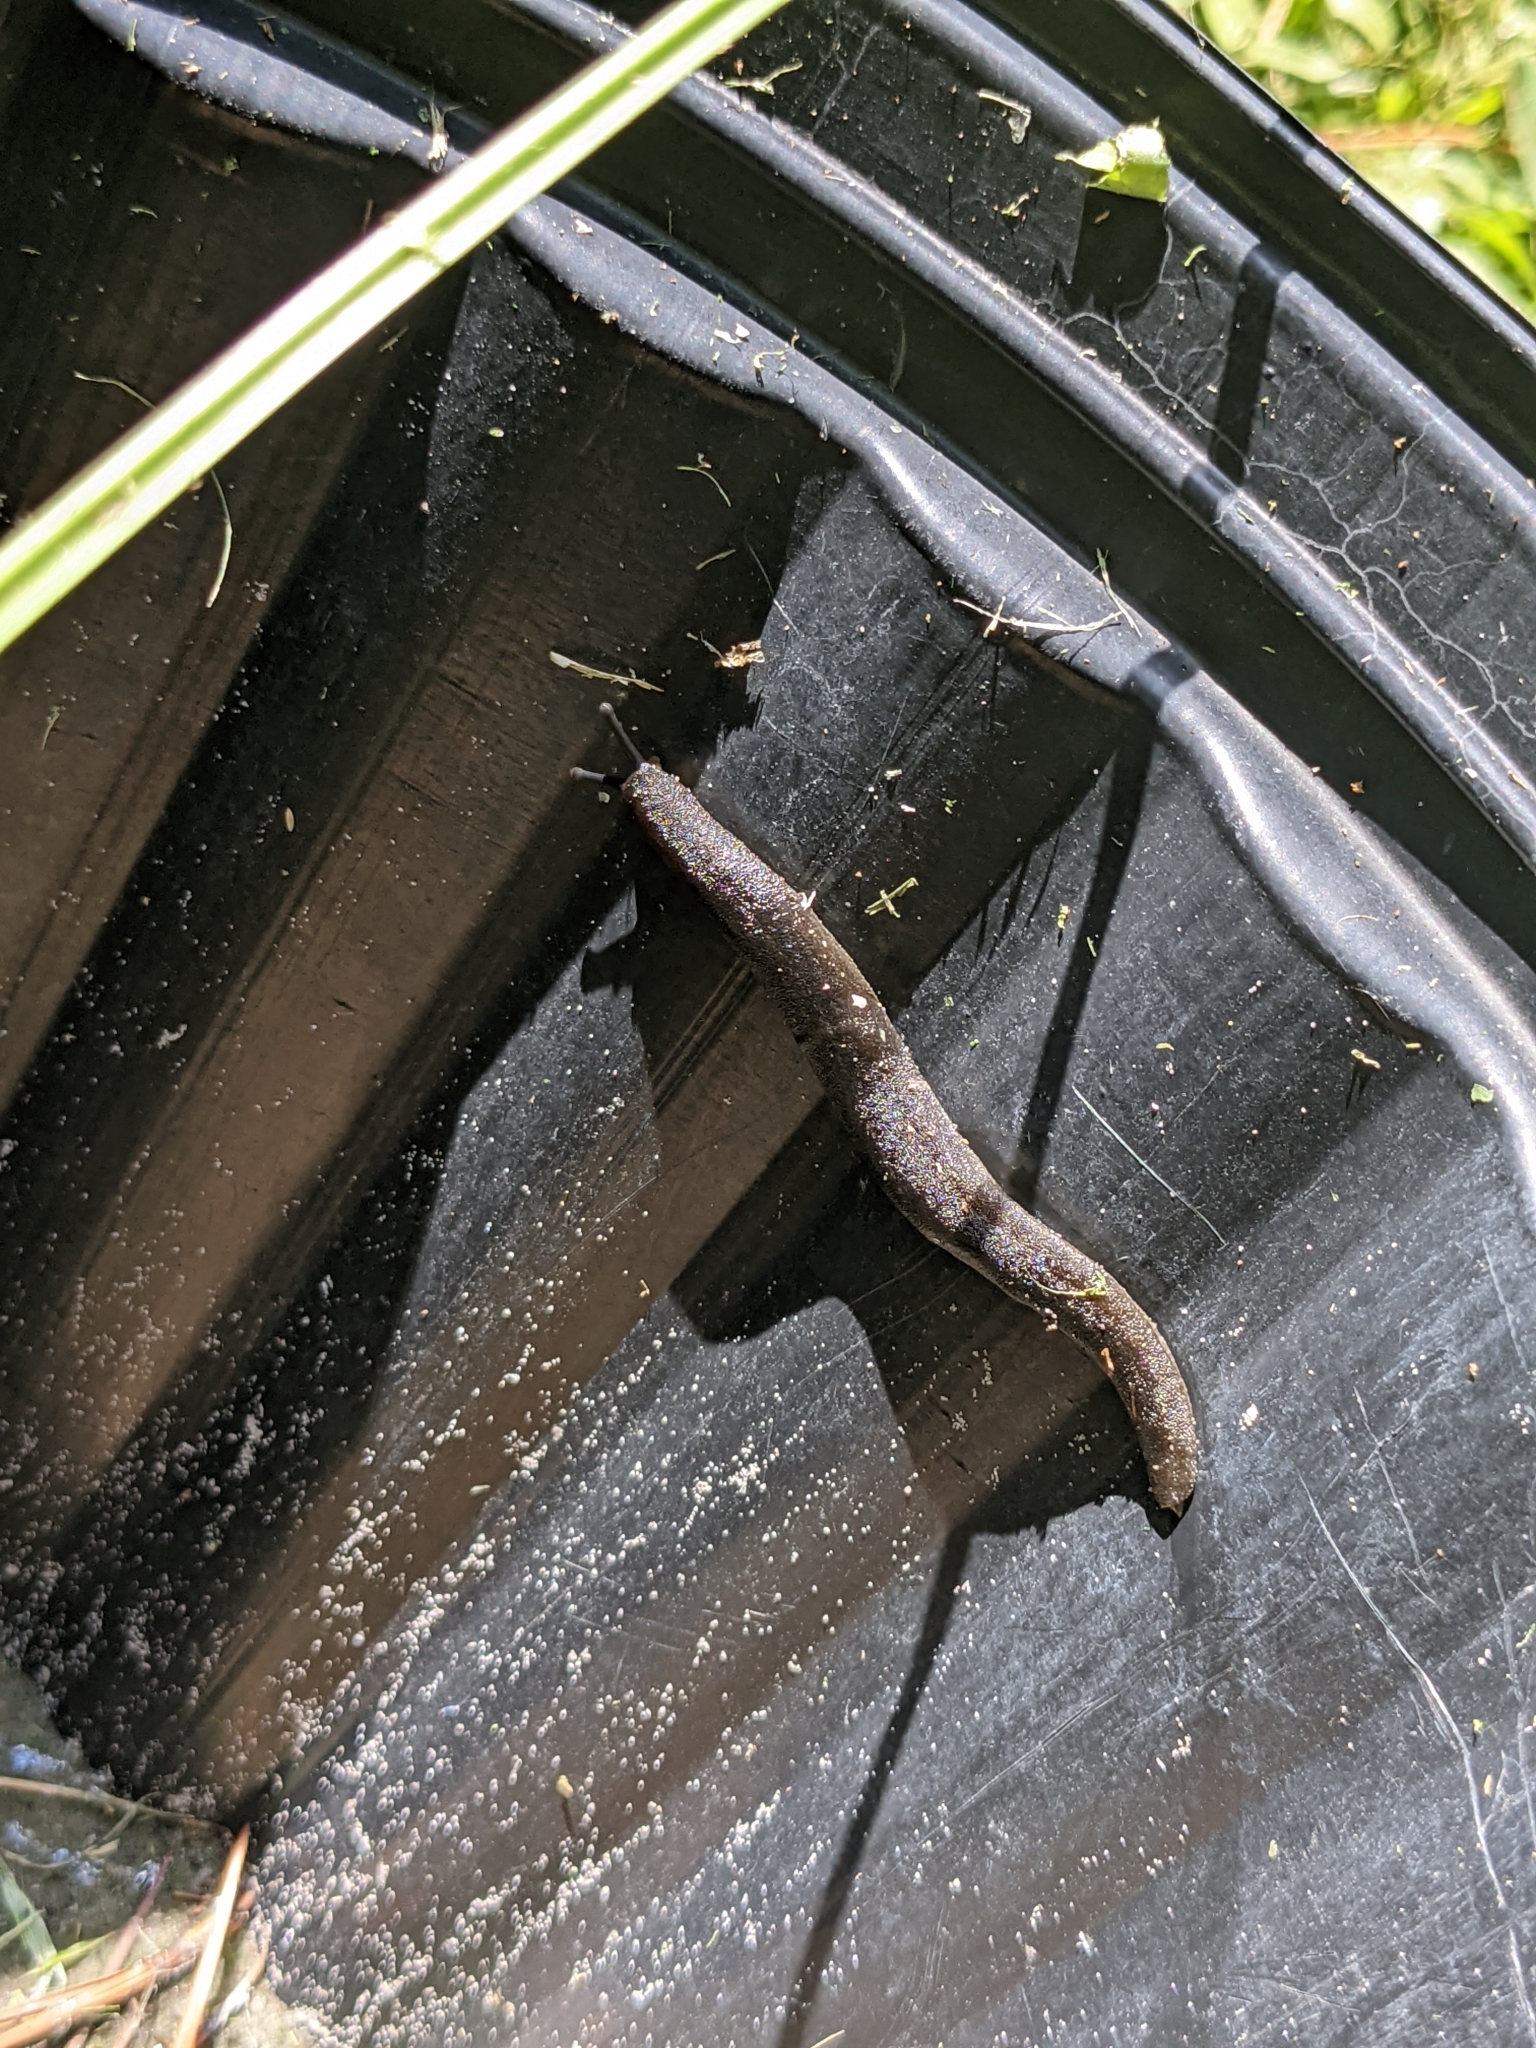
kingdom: Animalia
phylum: Mollusca
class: Gastropoda
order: Systellommatophora
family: Veronicellidae
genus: Belocaulus
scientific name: Belocaulus angustipes
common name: Black velvet leatherleaf slug
